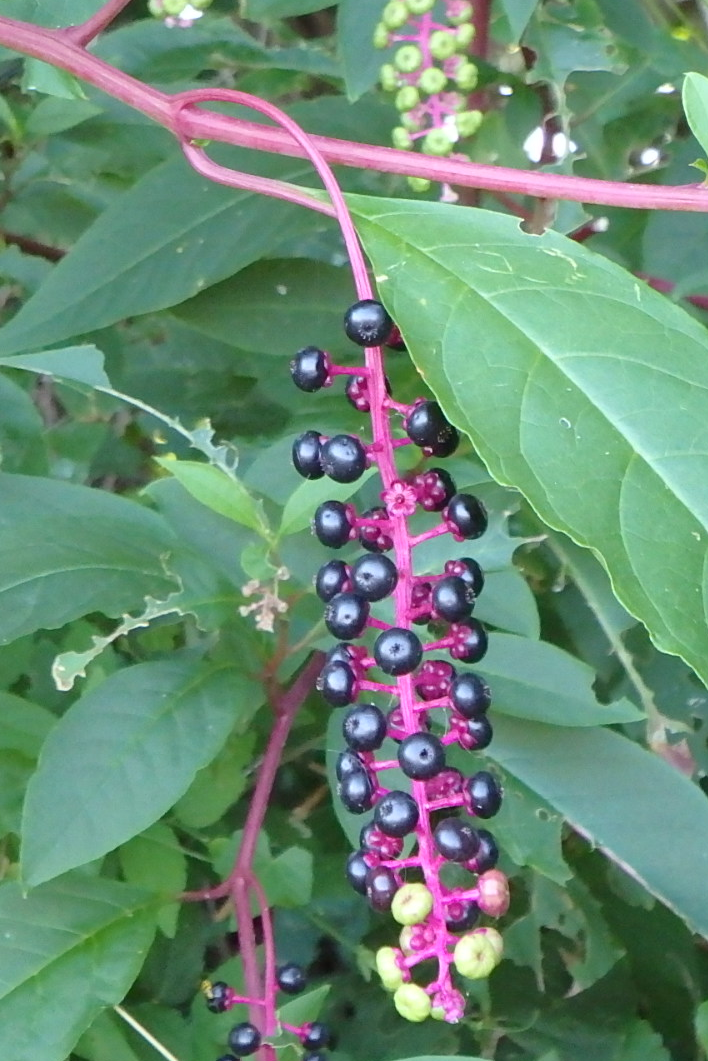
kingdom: Plantae
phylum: Tracheophyta
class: Magnoliopsida
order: Caryophyllales
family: Phytolaccaceae
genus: Phytolacca
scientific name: Phytolacca americana
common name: American pokeweed
